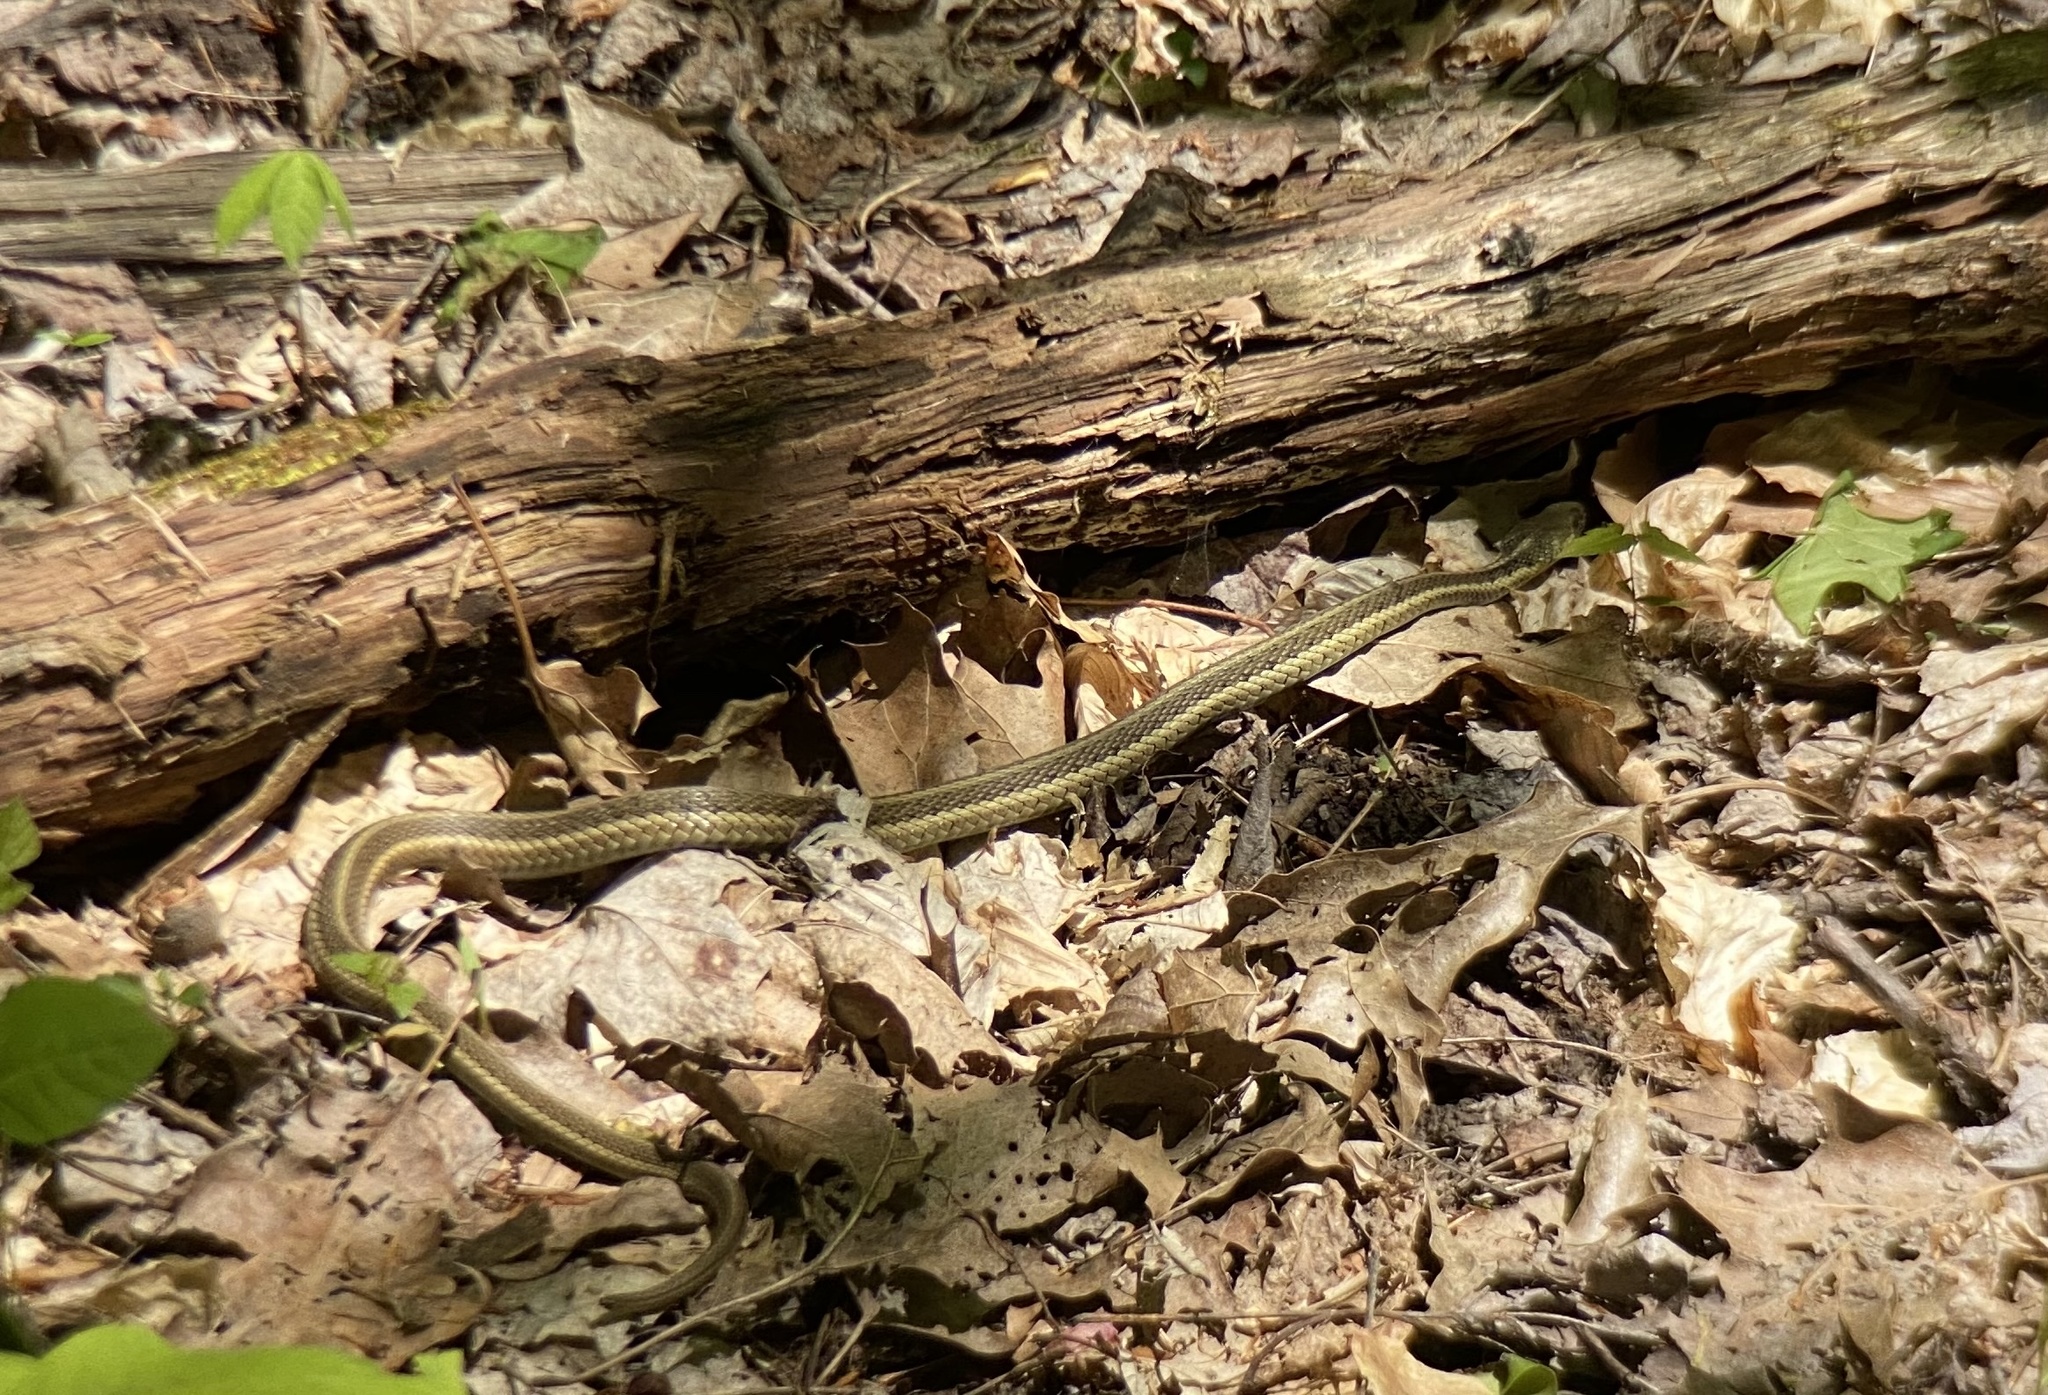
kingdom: Animalia
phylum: Chordata
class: Squamata
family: Colubridae
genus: Thamnophis
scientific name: Thamnophis sirtalis
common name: Common garter snake
